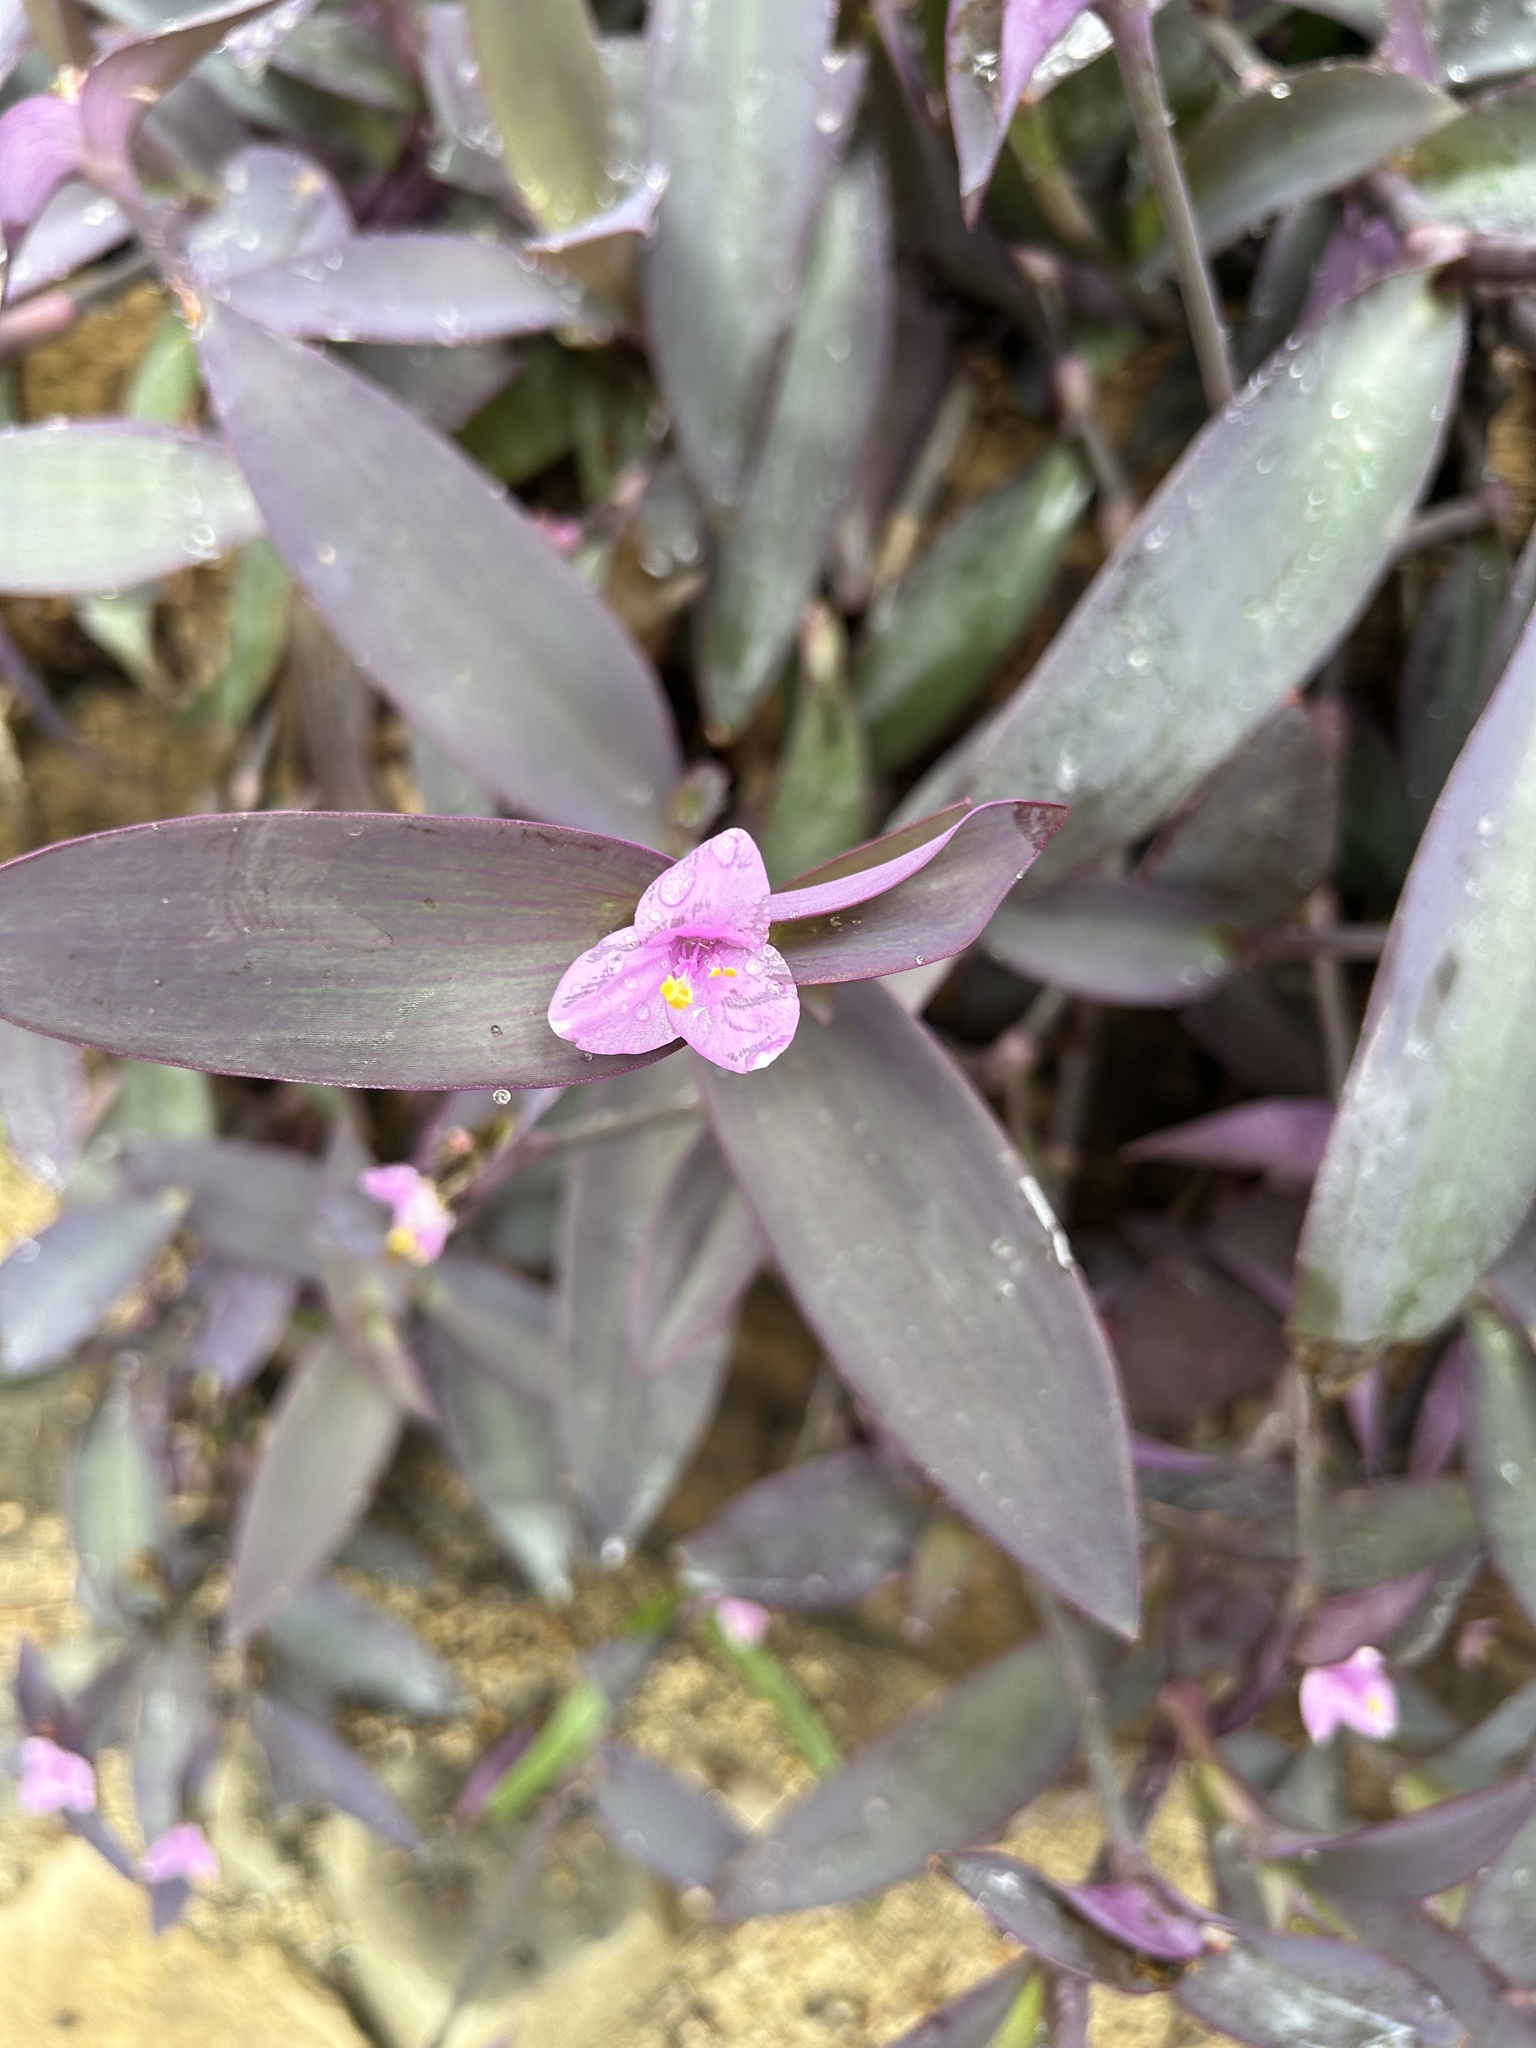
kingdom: Plantae
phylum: Tracheophyta
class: Liliopsida
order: Commelinales
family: Commelinaceae
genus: Tradescantia
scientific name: Tradescantia pallida
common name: Purpleheart
